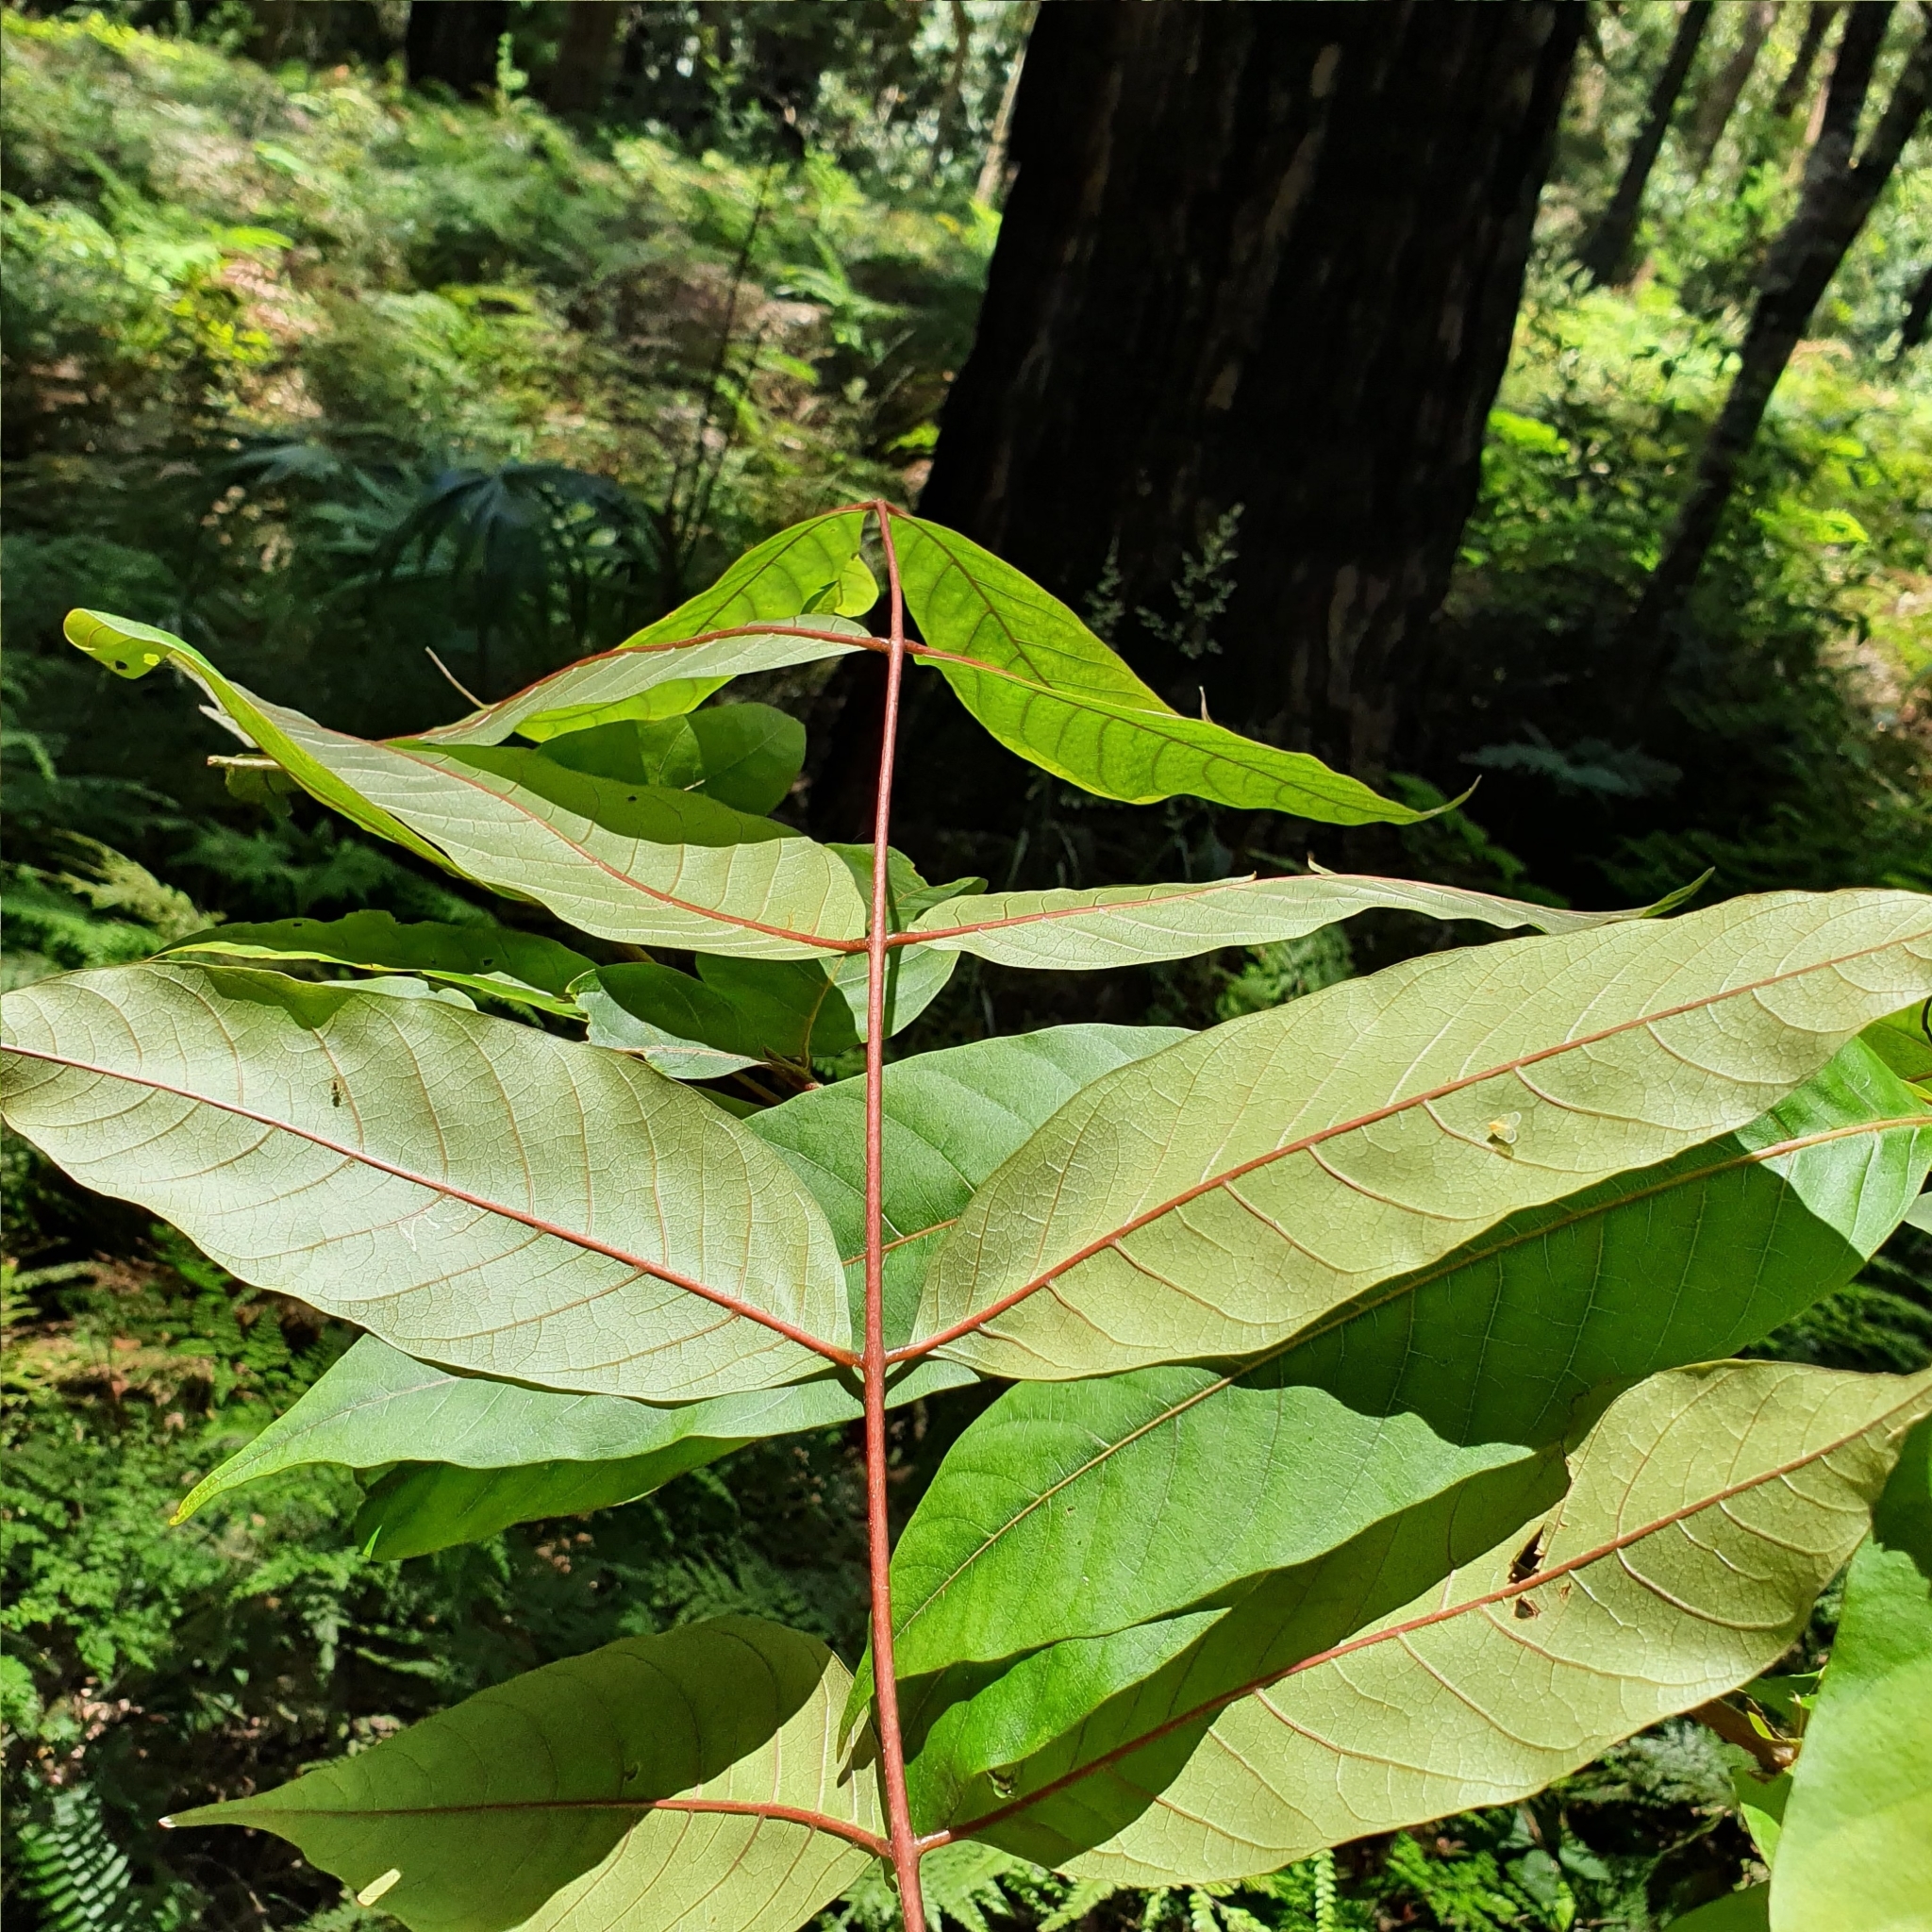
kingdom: Plantae
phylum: Tracheophyta
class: Magnoliopsida
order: Sapindales
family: Meliaceae
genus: Toona
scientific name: Toona ciliata
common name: Australian redcedar
